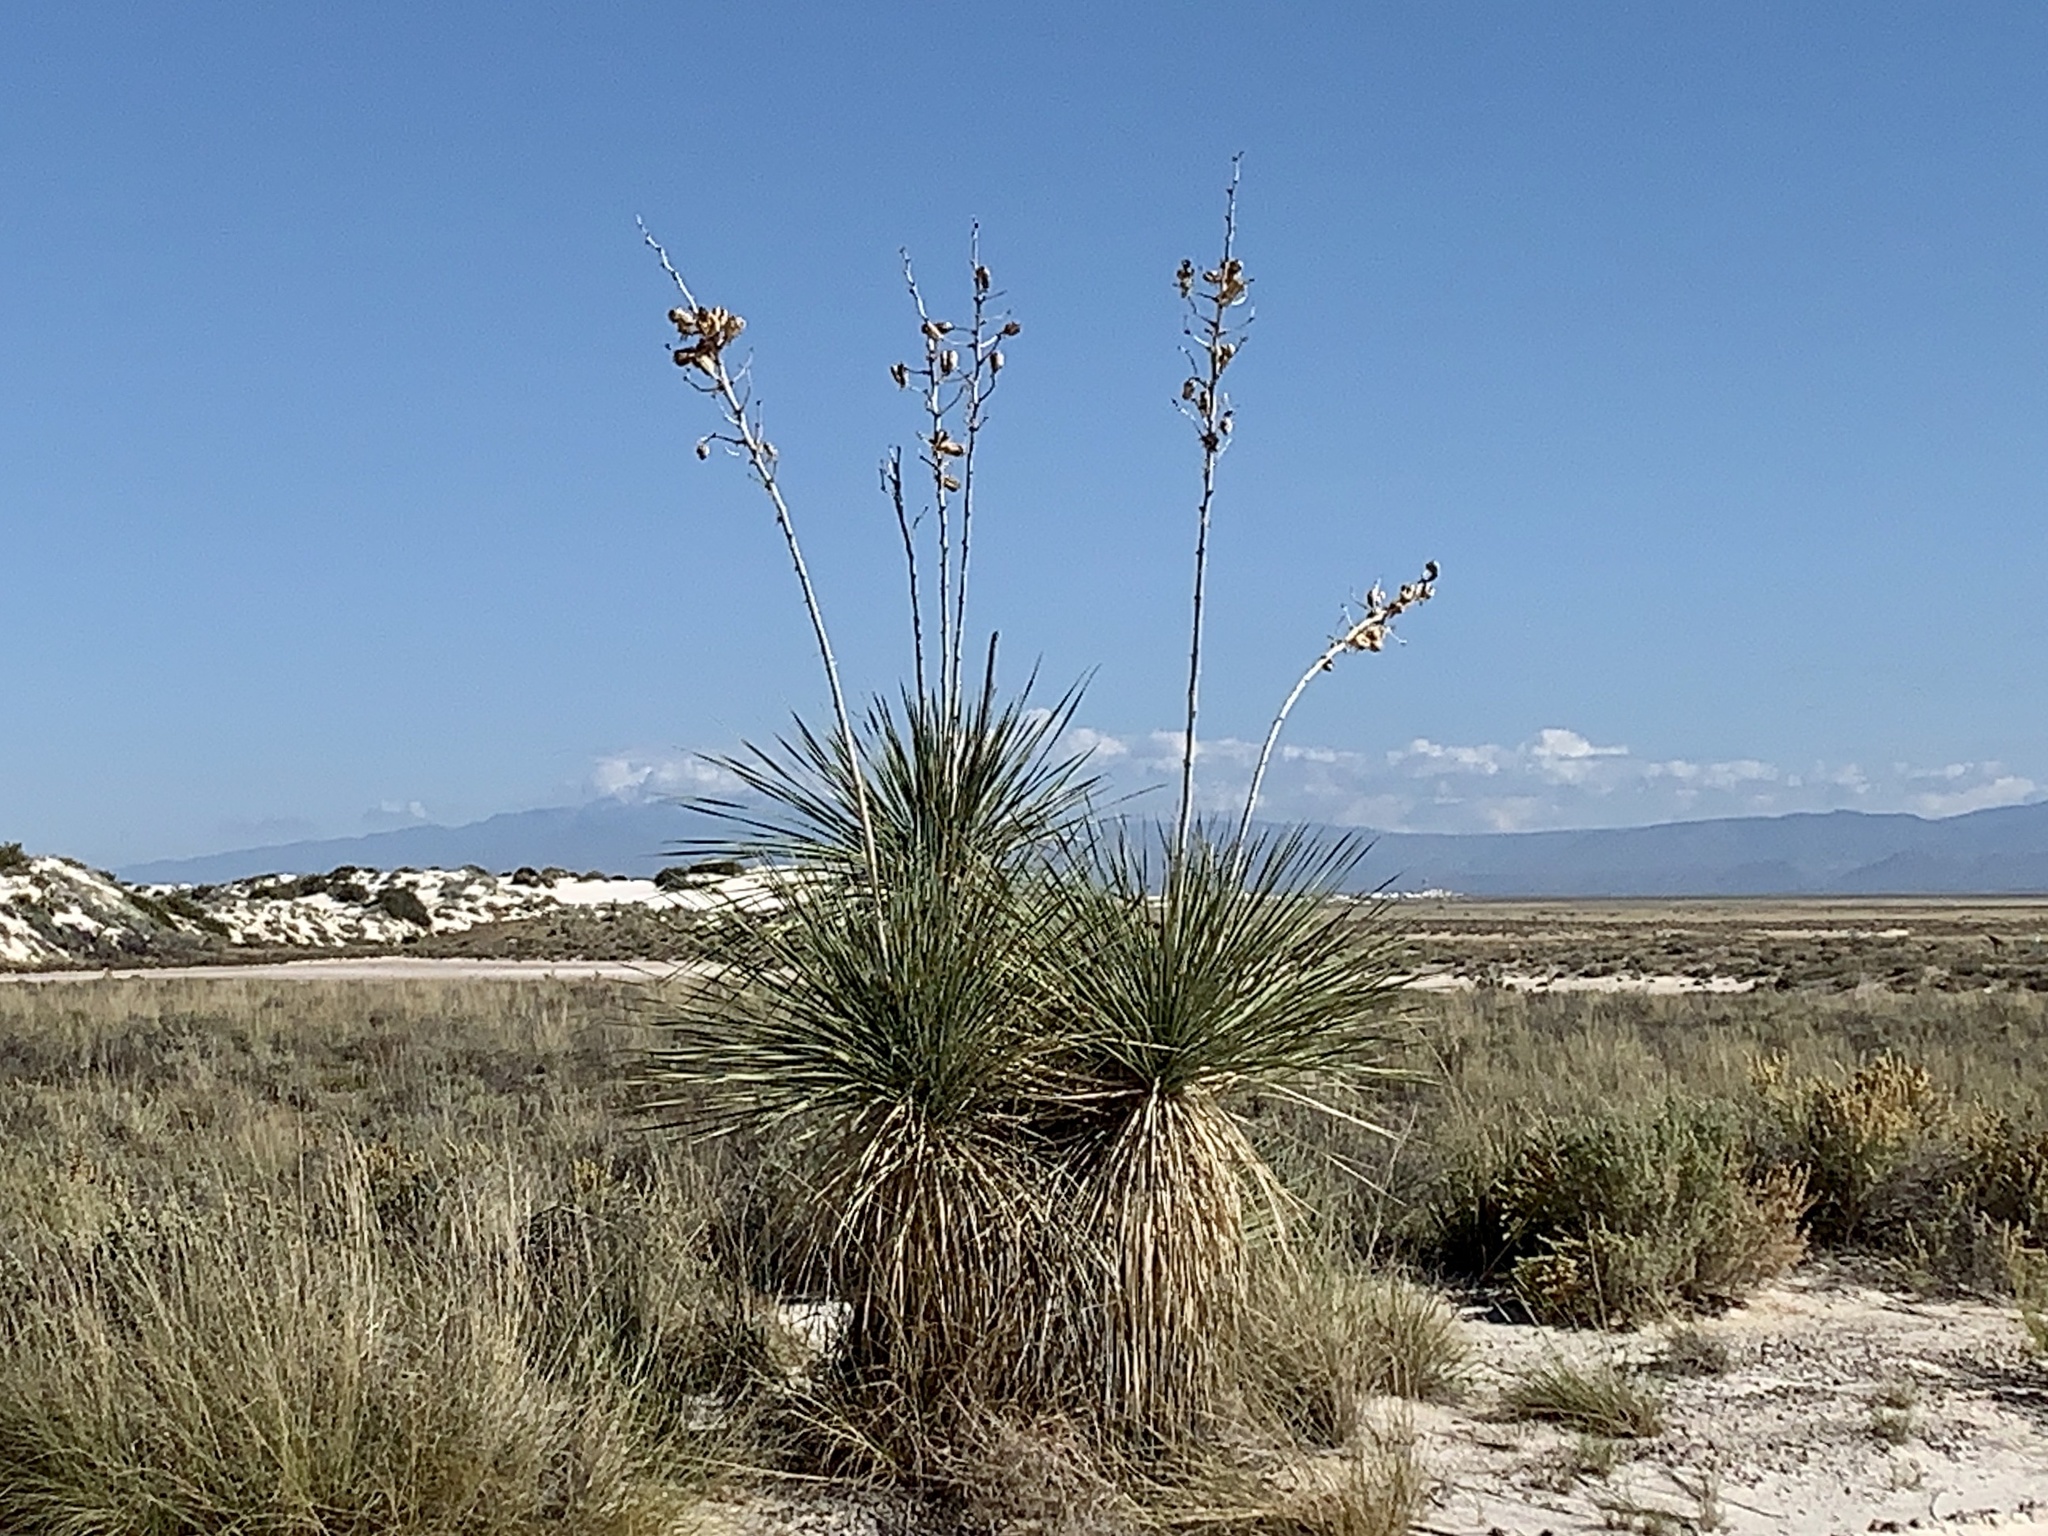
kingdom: Plantae
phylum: Tracheophyta
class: Liliopsida
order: Asparagales
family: Asparagaceae
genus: Yucca
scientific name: Yucca elata
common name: Palmella
